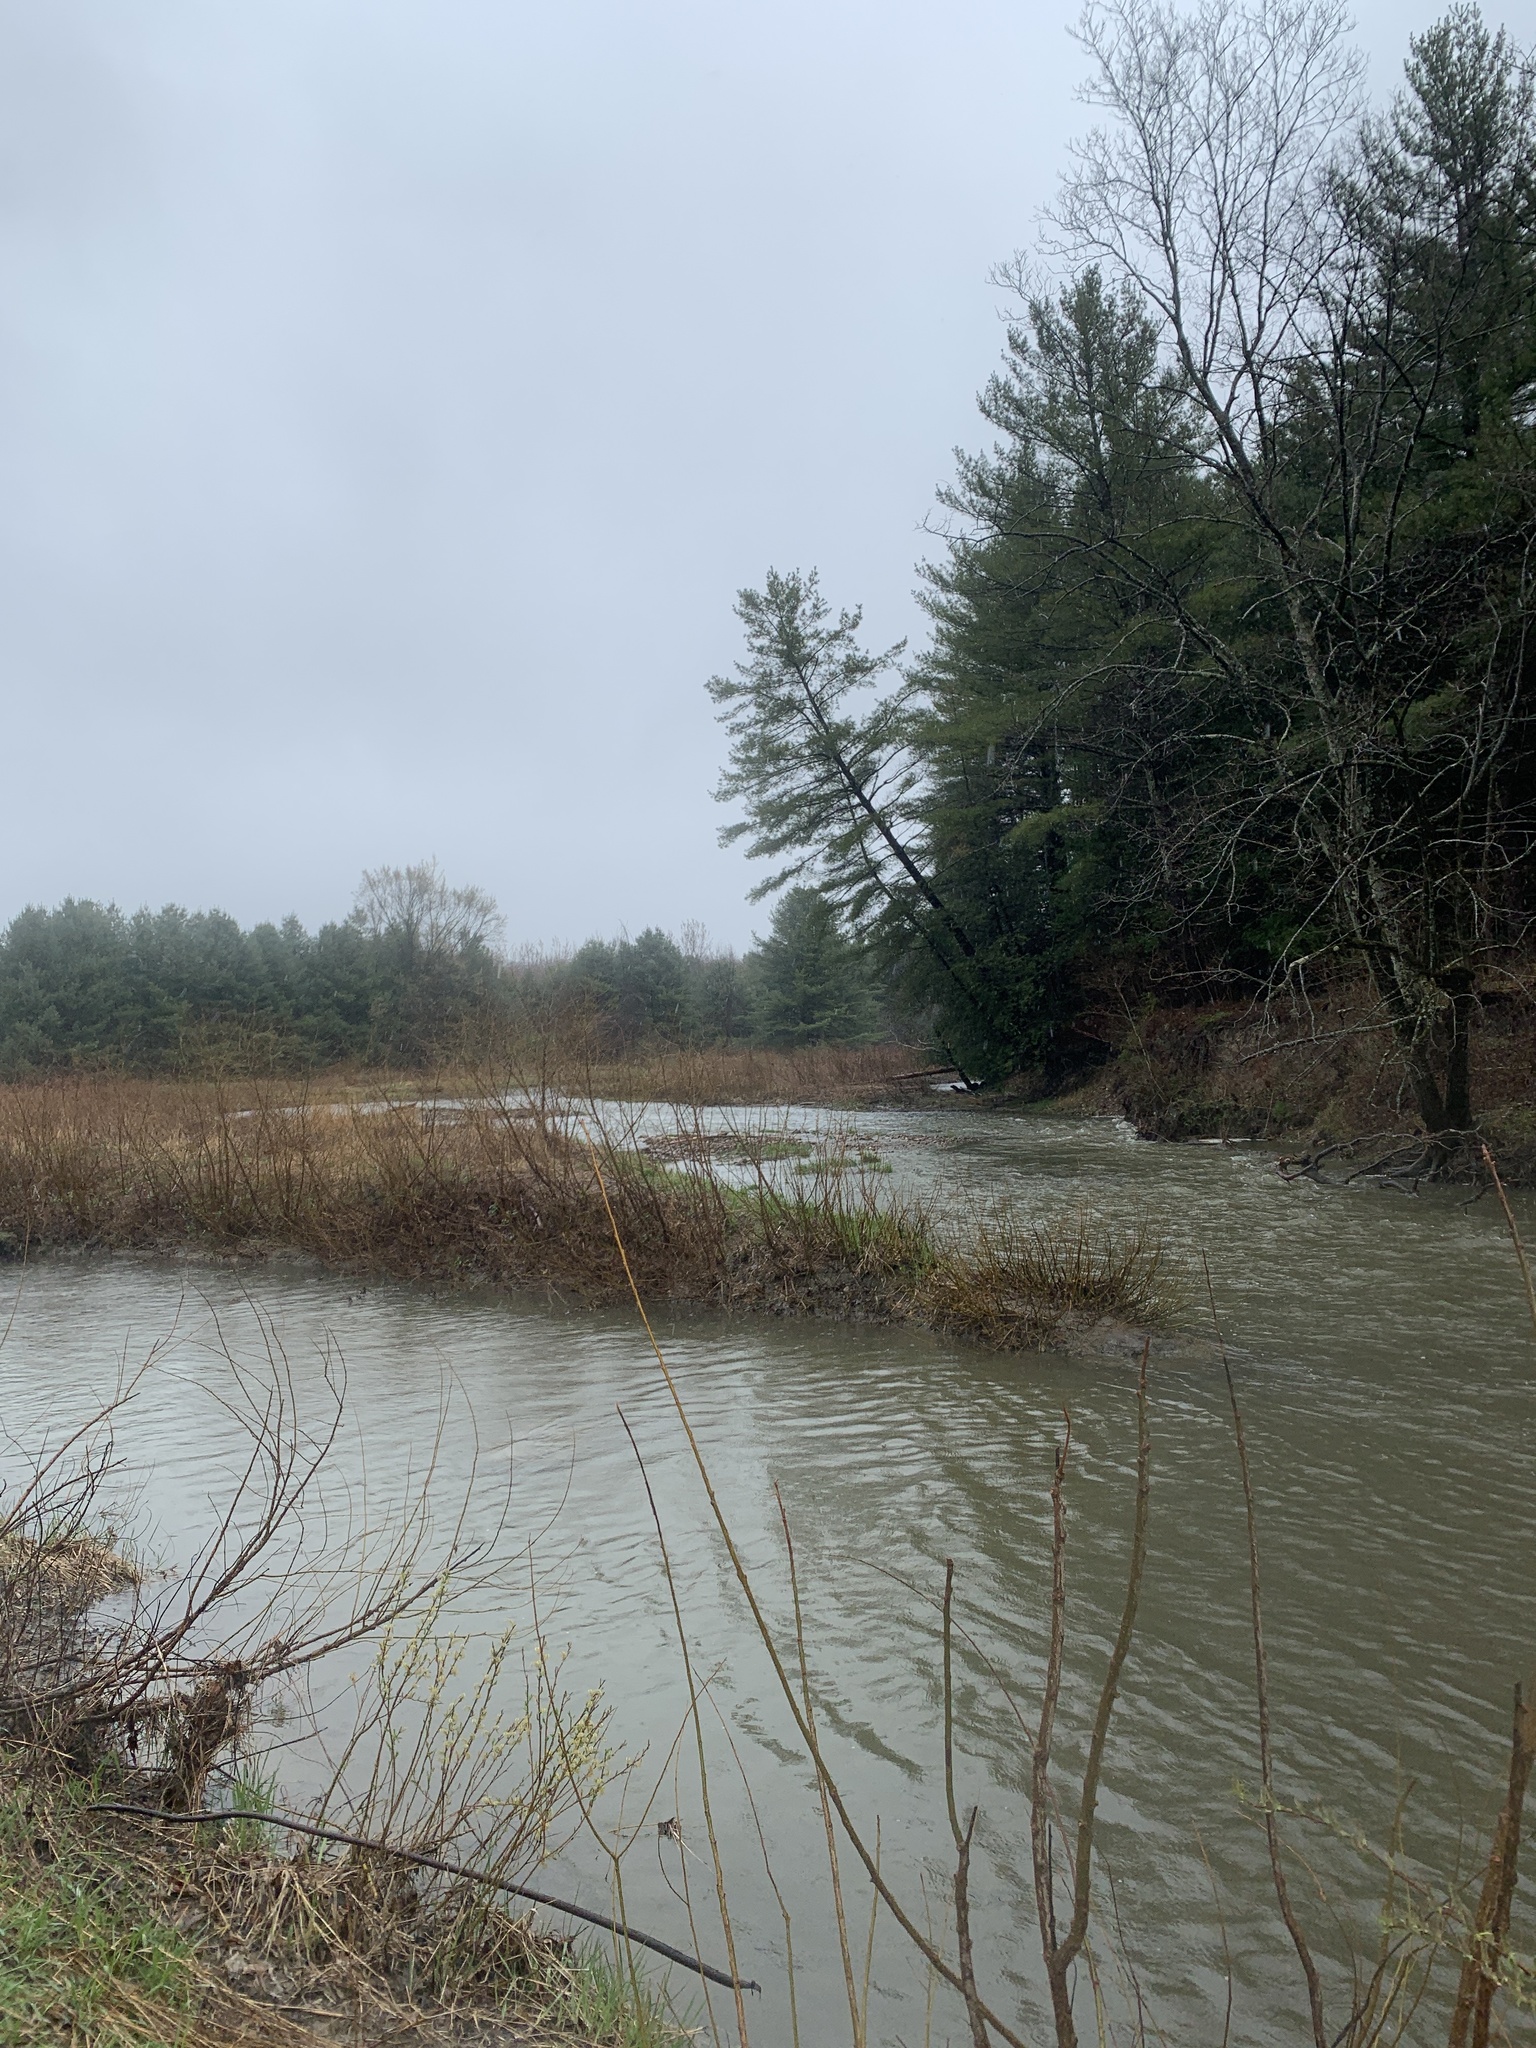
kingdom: Plantae
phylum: Tracheophyta
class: Pinopsida
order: Pinales
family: Pinaceae
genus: Pinus
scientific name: Pinus strobus
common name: Weymouth pine
